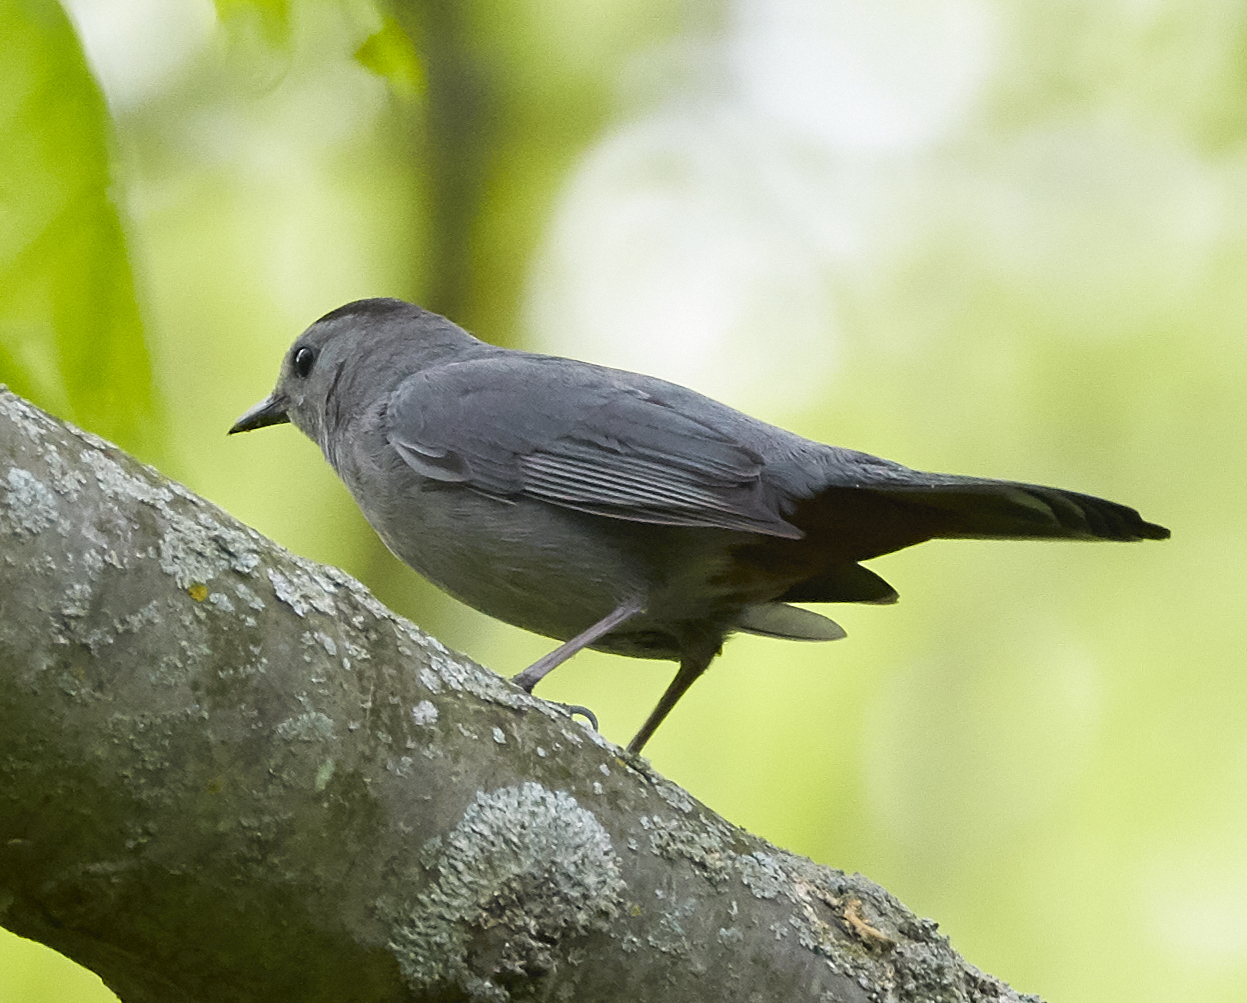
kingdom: Animalia
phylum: Chordata
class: Aves
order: Passeriformes
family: Mimidae
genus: Dumetella
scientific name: Dumetella carolinensis
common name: Gray catbird
